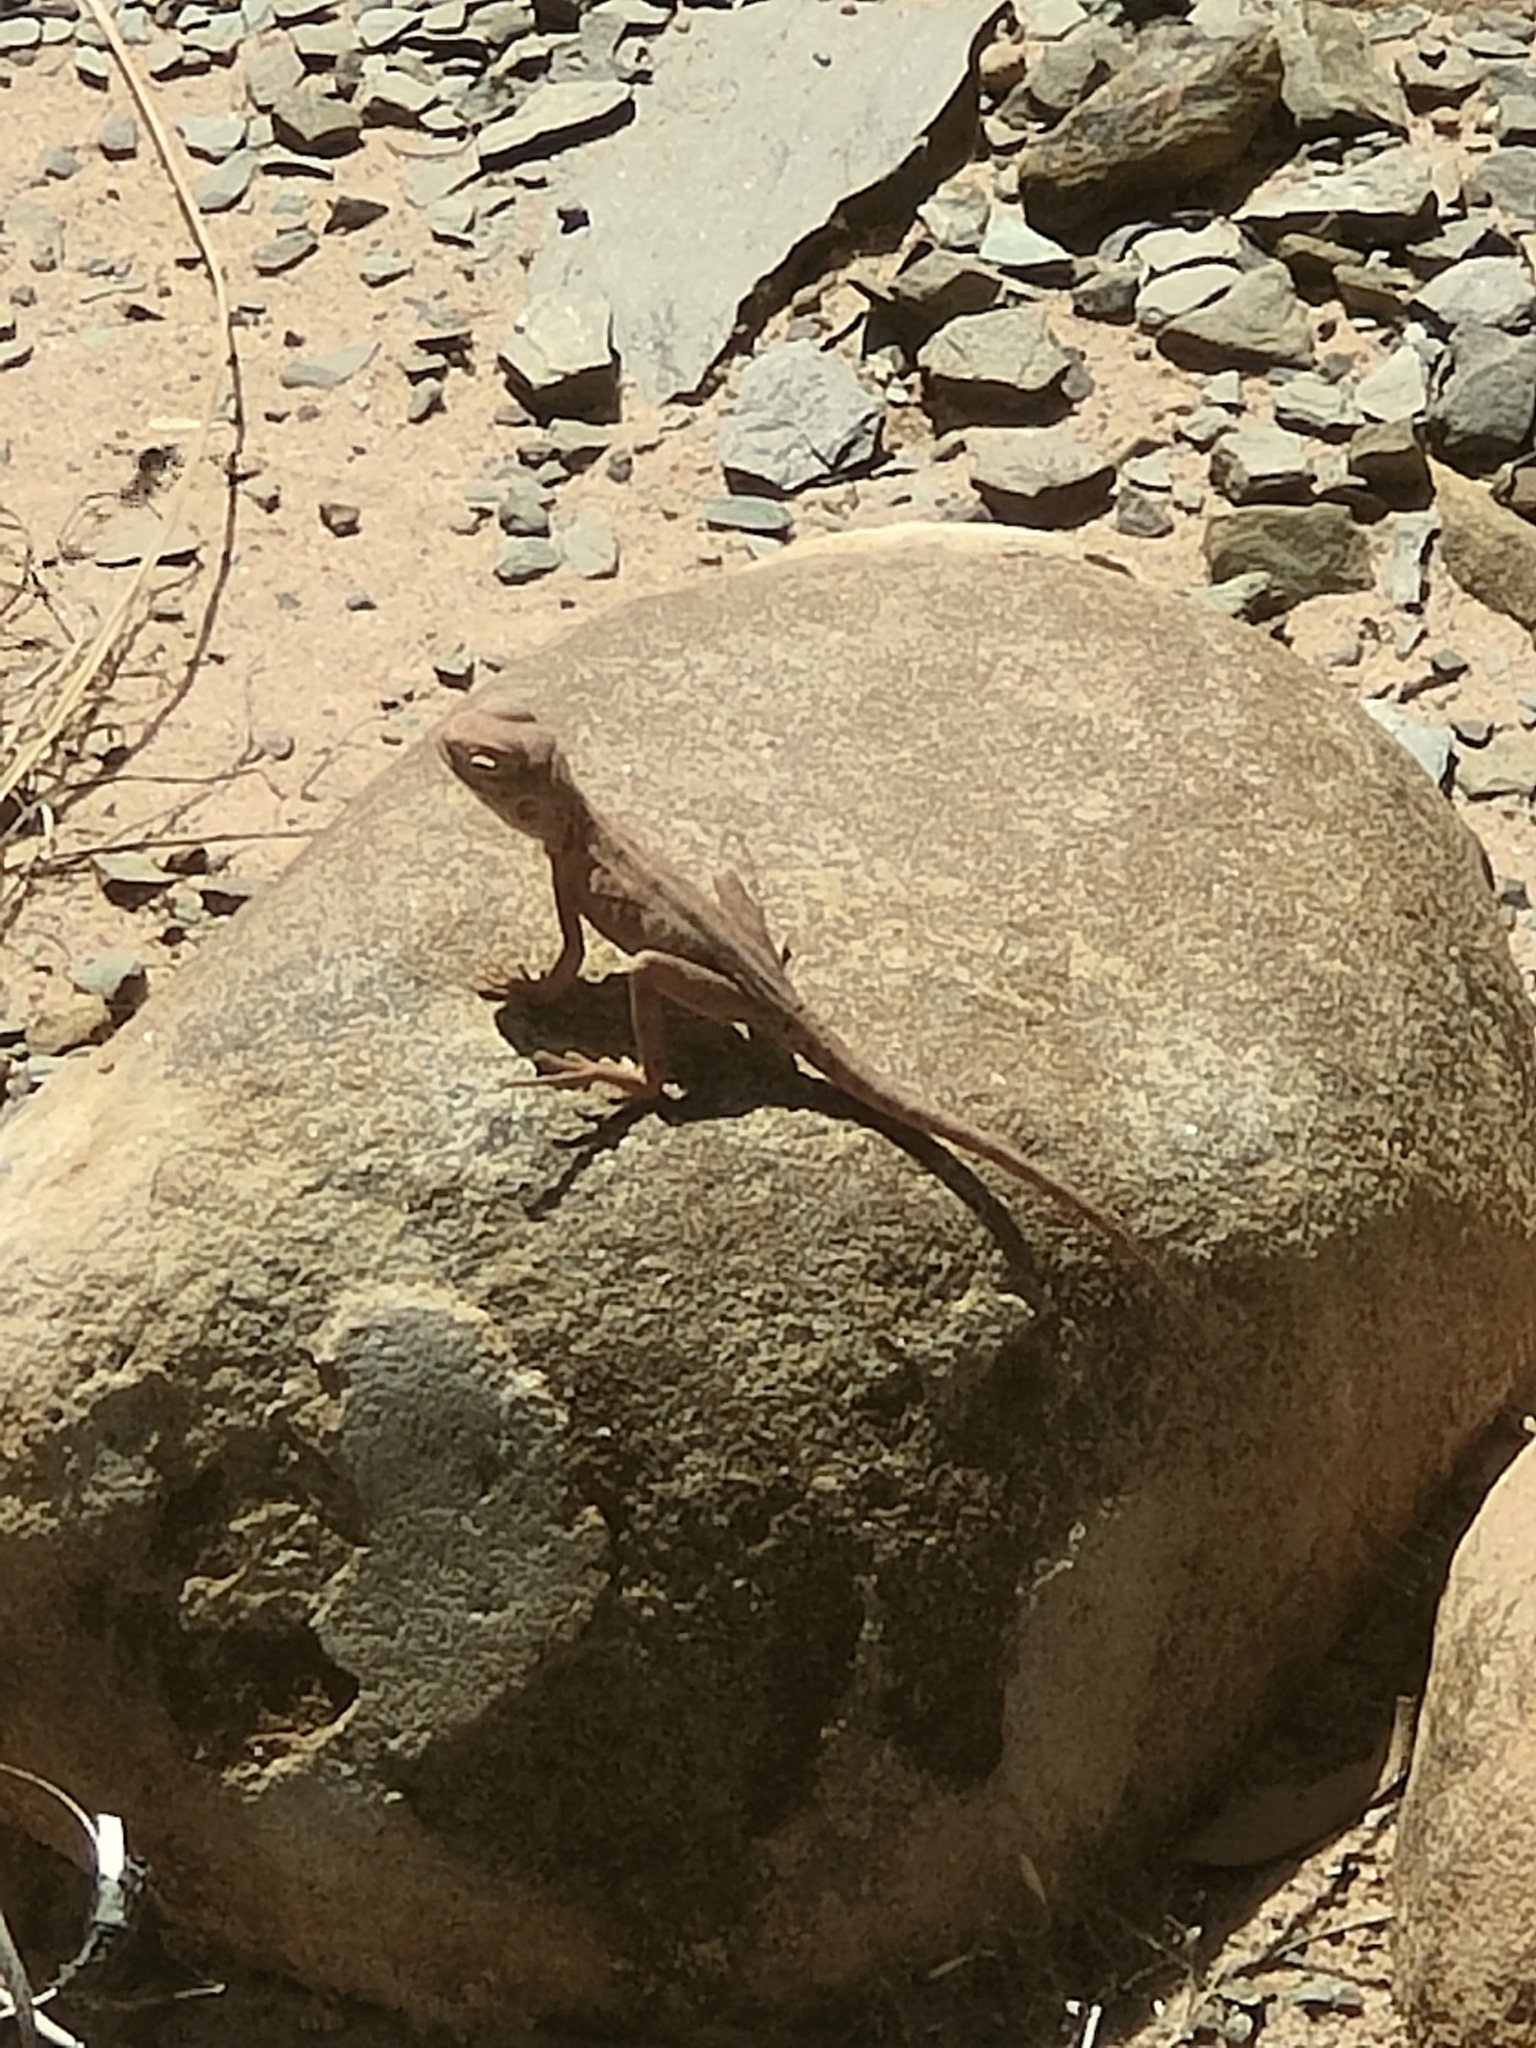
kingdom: Animalia
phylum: Chordata
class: Squamata
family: Agamidae
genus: Ctenophorus
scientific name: Ctenophorus slateri
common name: Slater’s dragon
